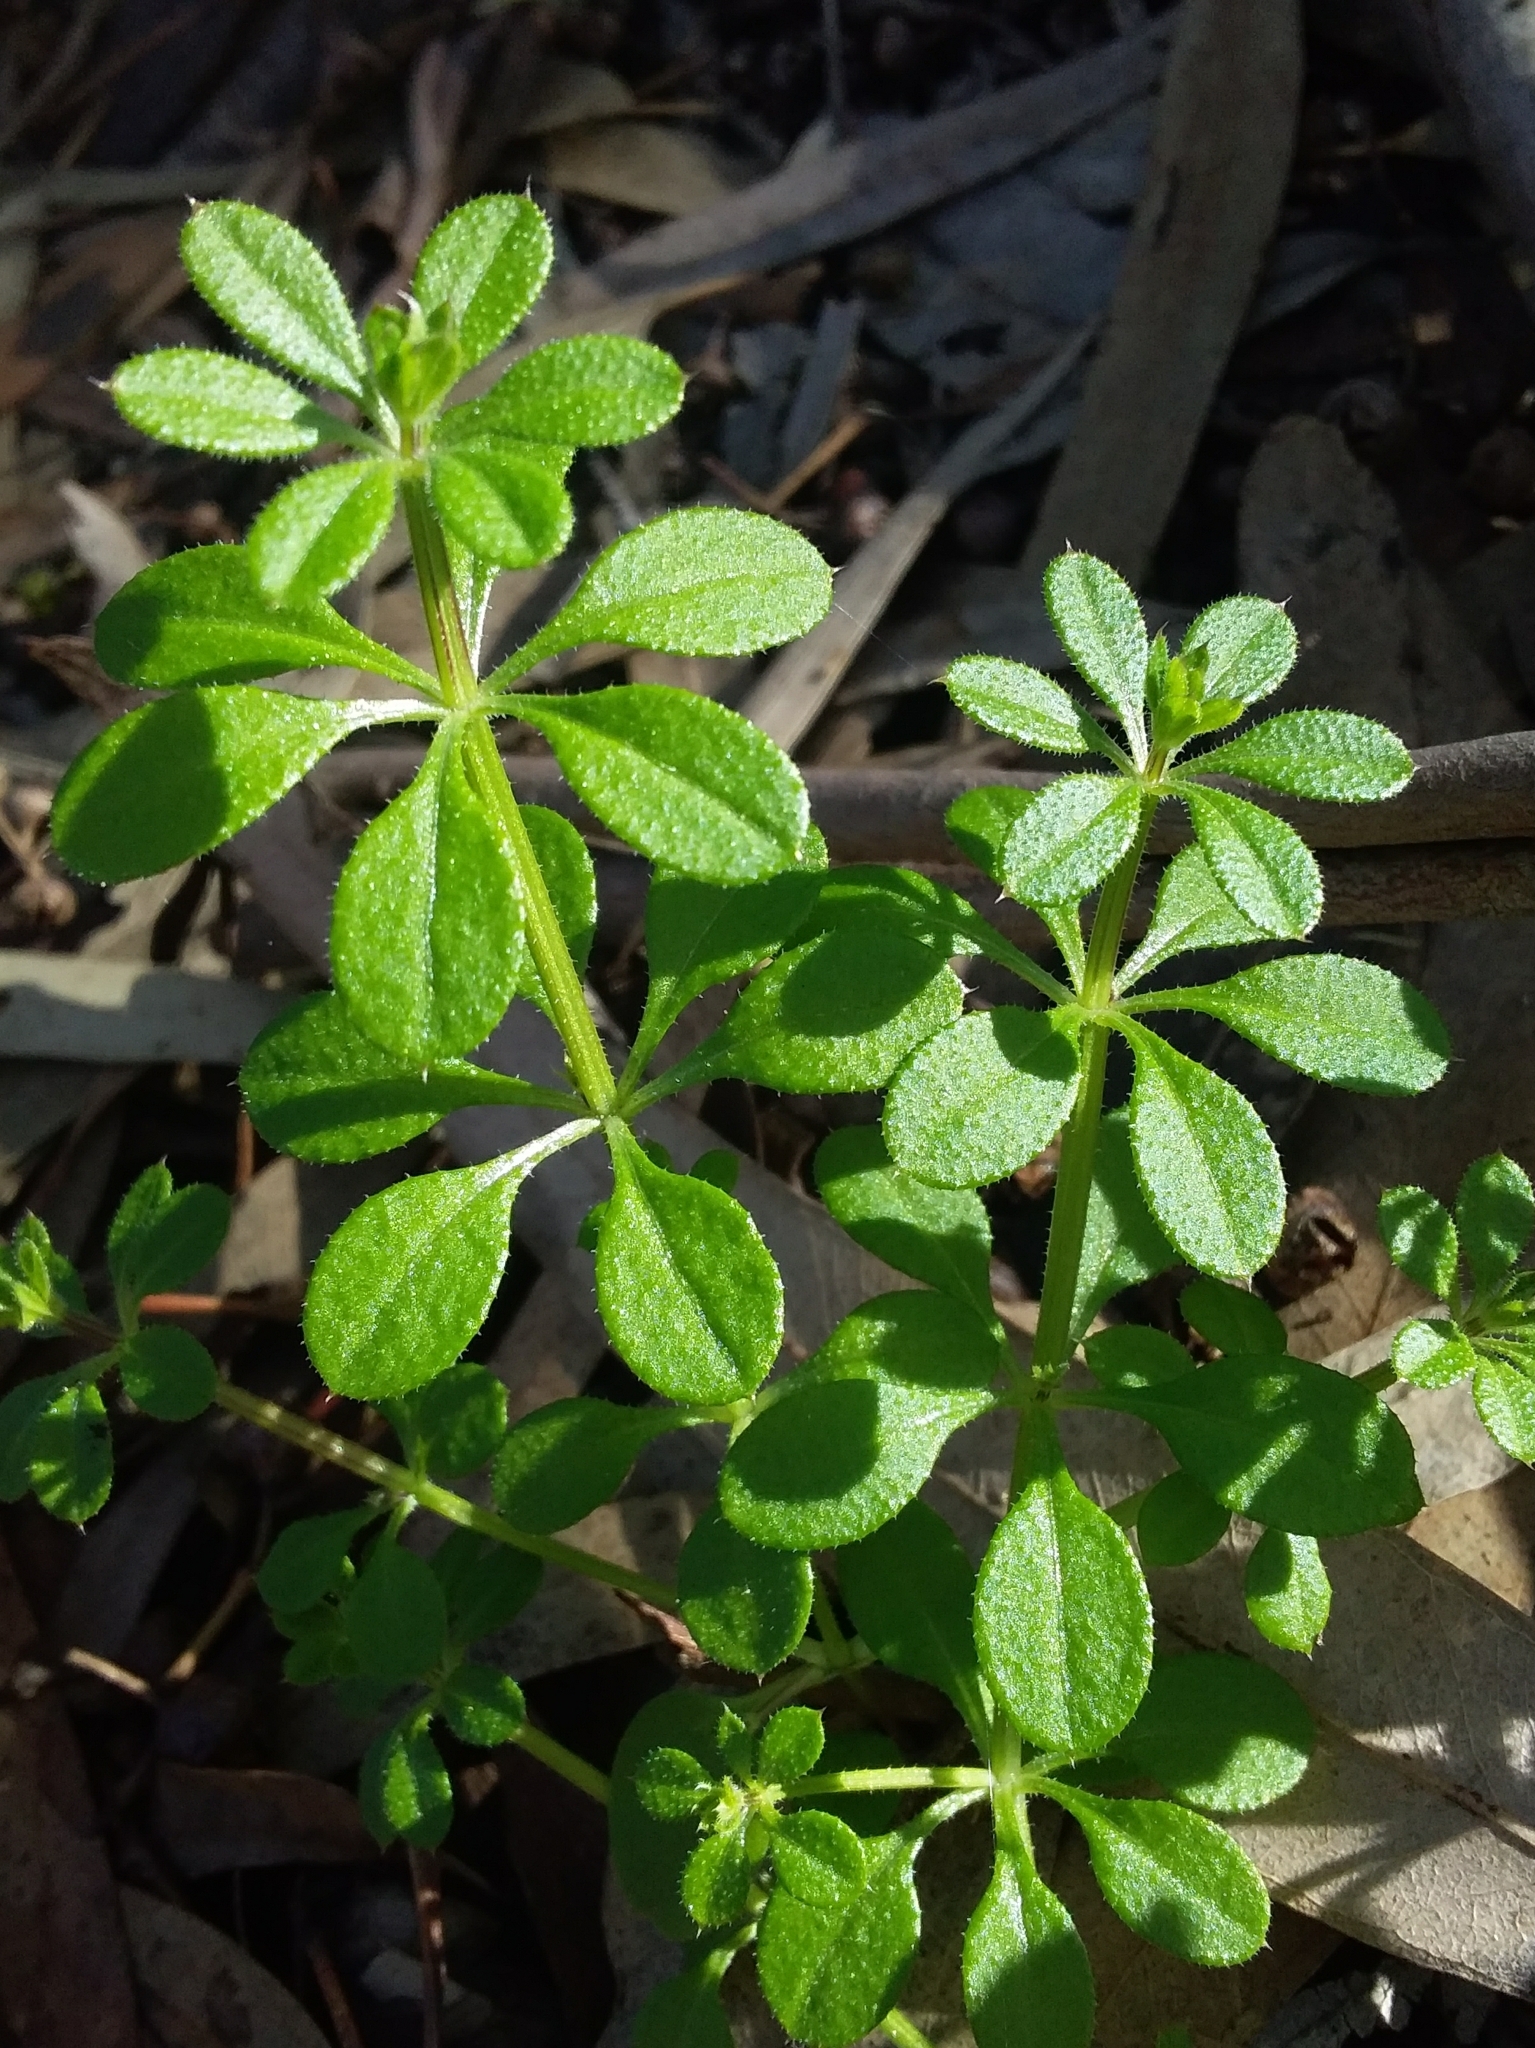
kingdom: Plantae
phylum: Tracheophyta
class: Magnoliopsida
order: Gentianales
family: Rubiaceae
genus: Galium
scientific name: Galium aparine
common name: Cleavers
